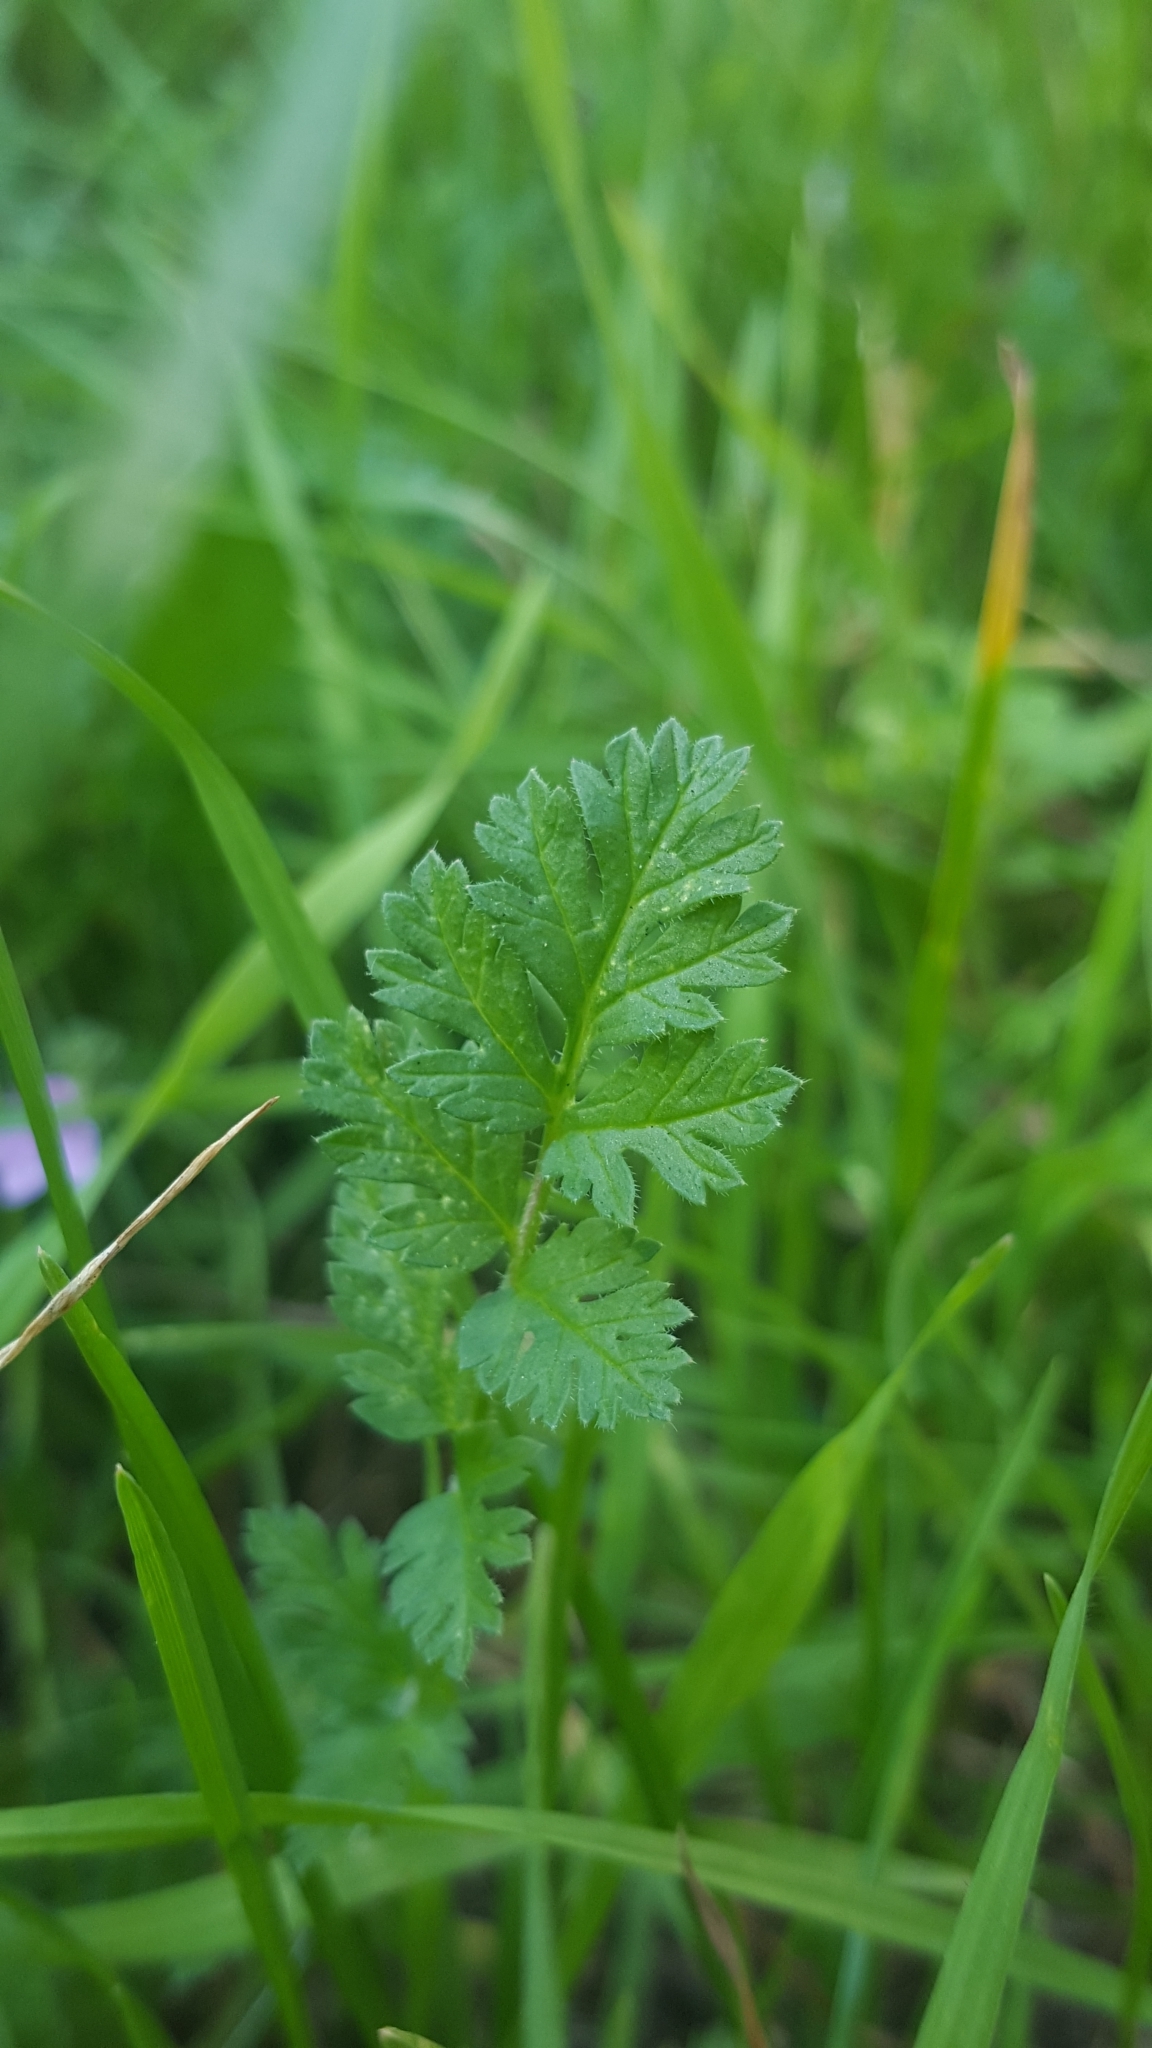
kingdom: Plantae
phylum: Tracheophyta
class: Magnoliopsida
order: Geraniales
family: Geraniaceae
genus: Erodium
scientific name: Erodium cicutarium
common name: Common stork's-bill
